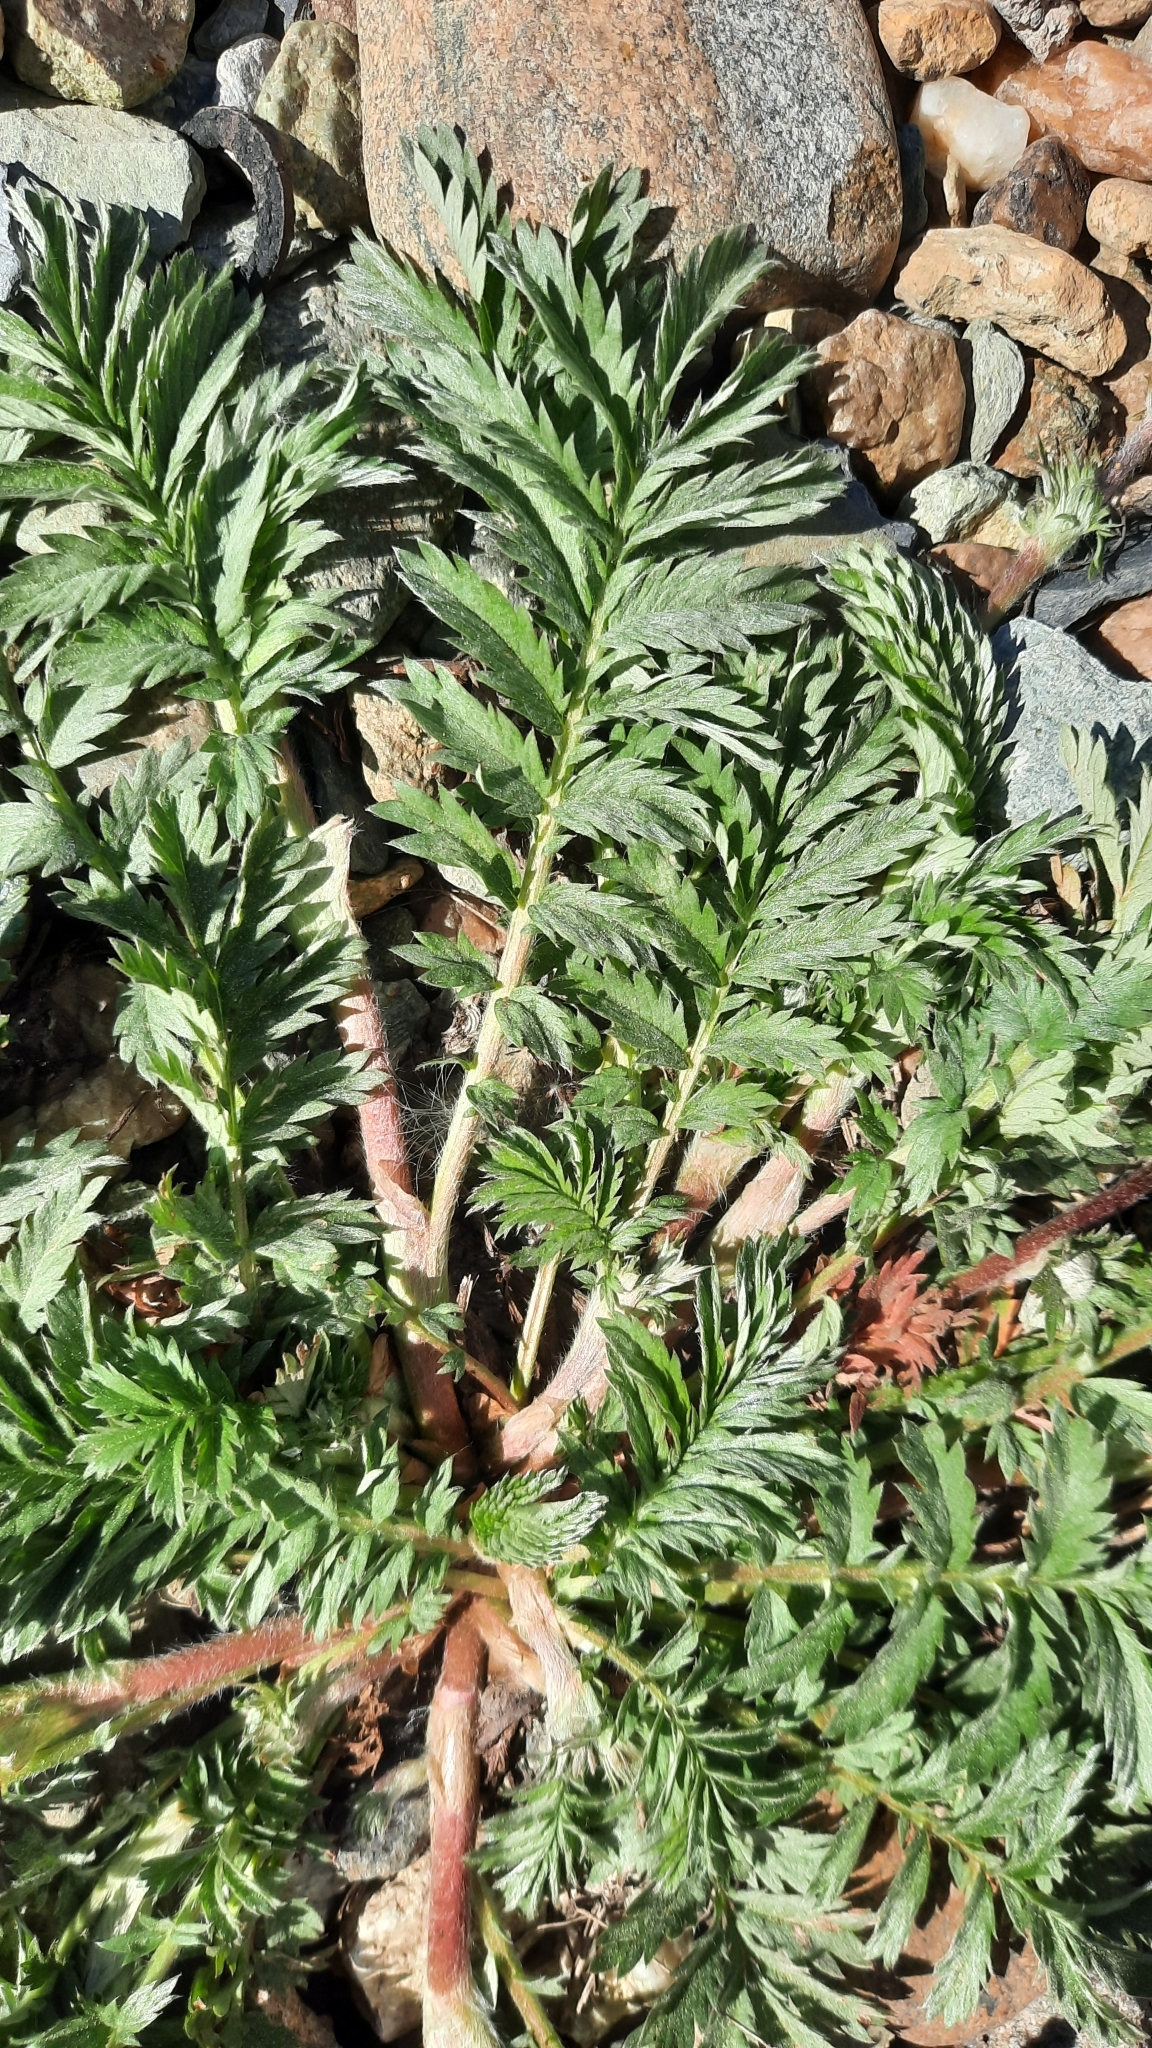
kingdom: Plantae
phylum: Tracheophyta
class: Magnoliopsida
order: Rosales
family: Rosaceae
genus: Argentina
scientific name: Argentina anserina
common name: Common silverweed
